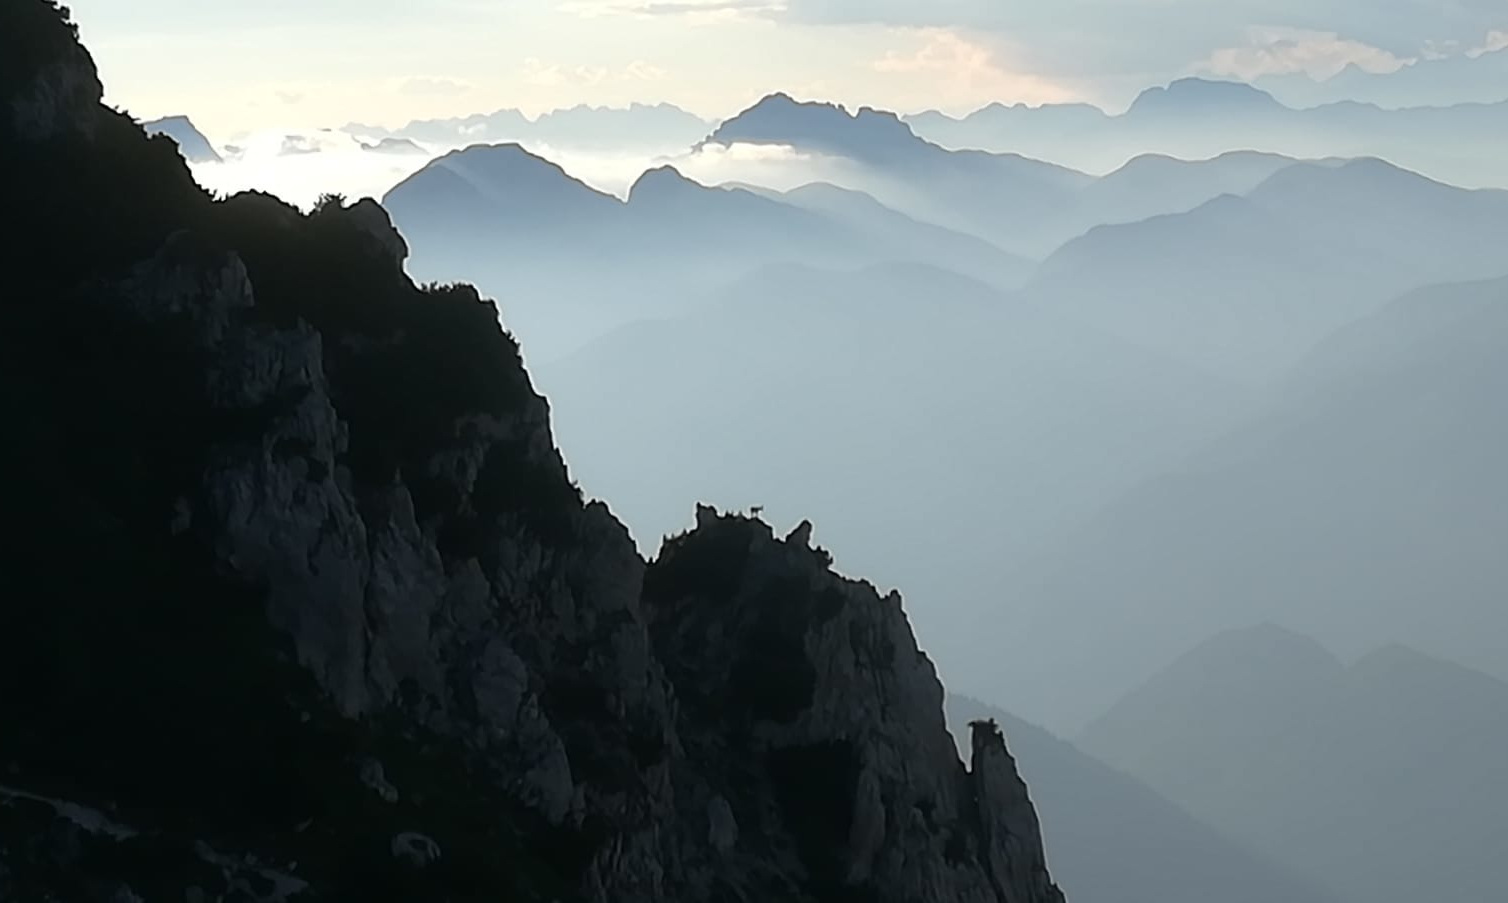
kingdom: Animalia
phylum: Chordata
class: Mammalia
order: Artiodactyla
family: Bovidae
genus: Capra
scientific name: Capra ibex
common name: Alpine ibex
